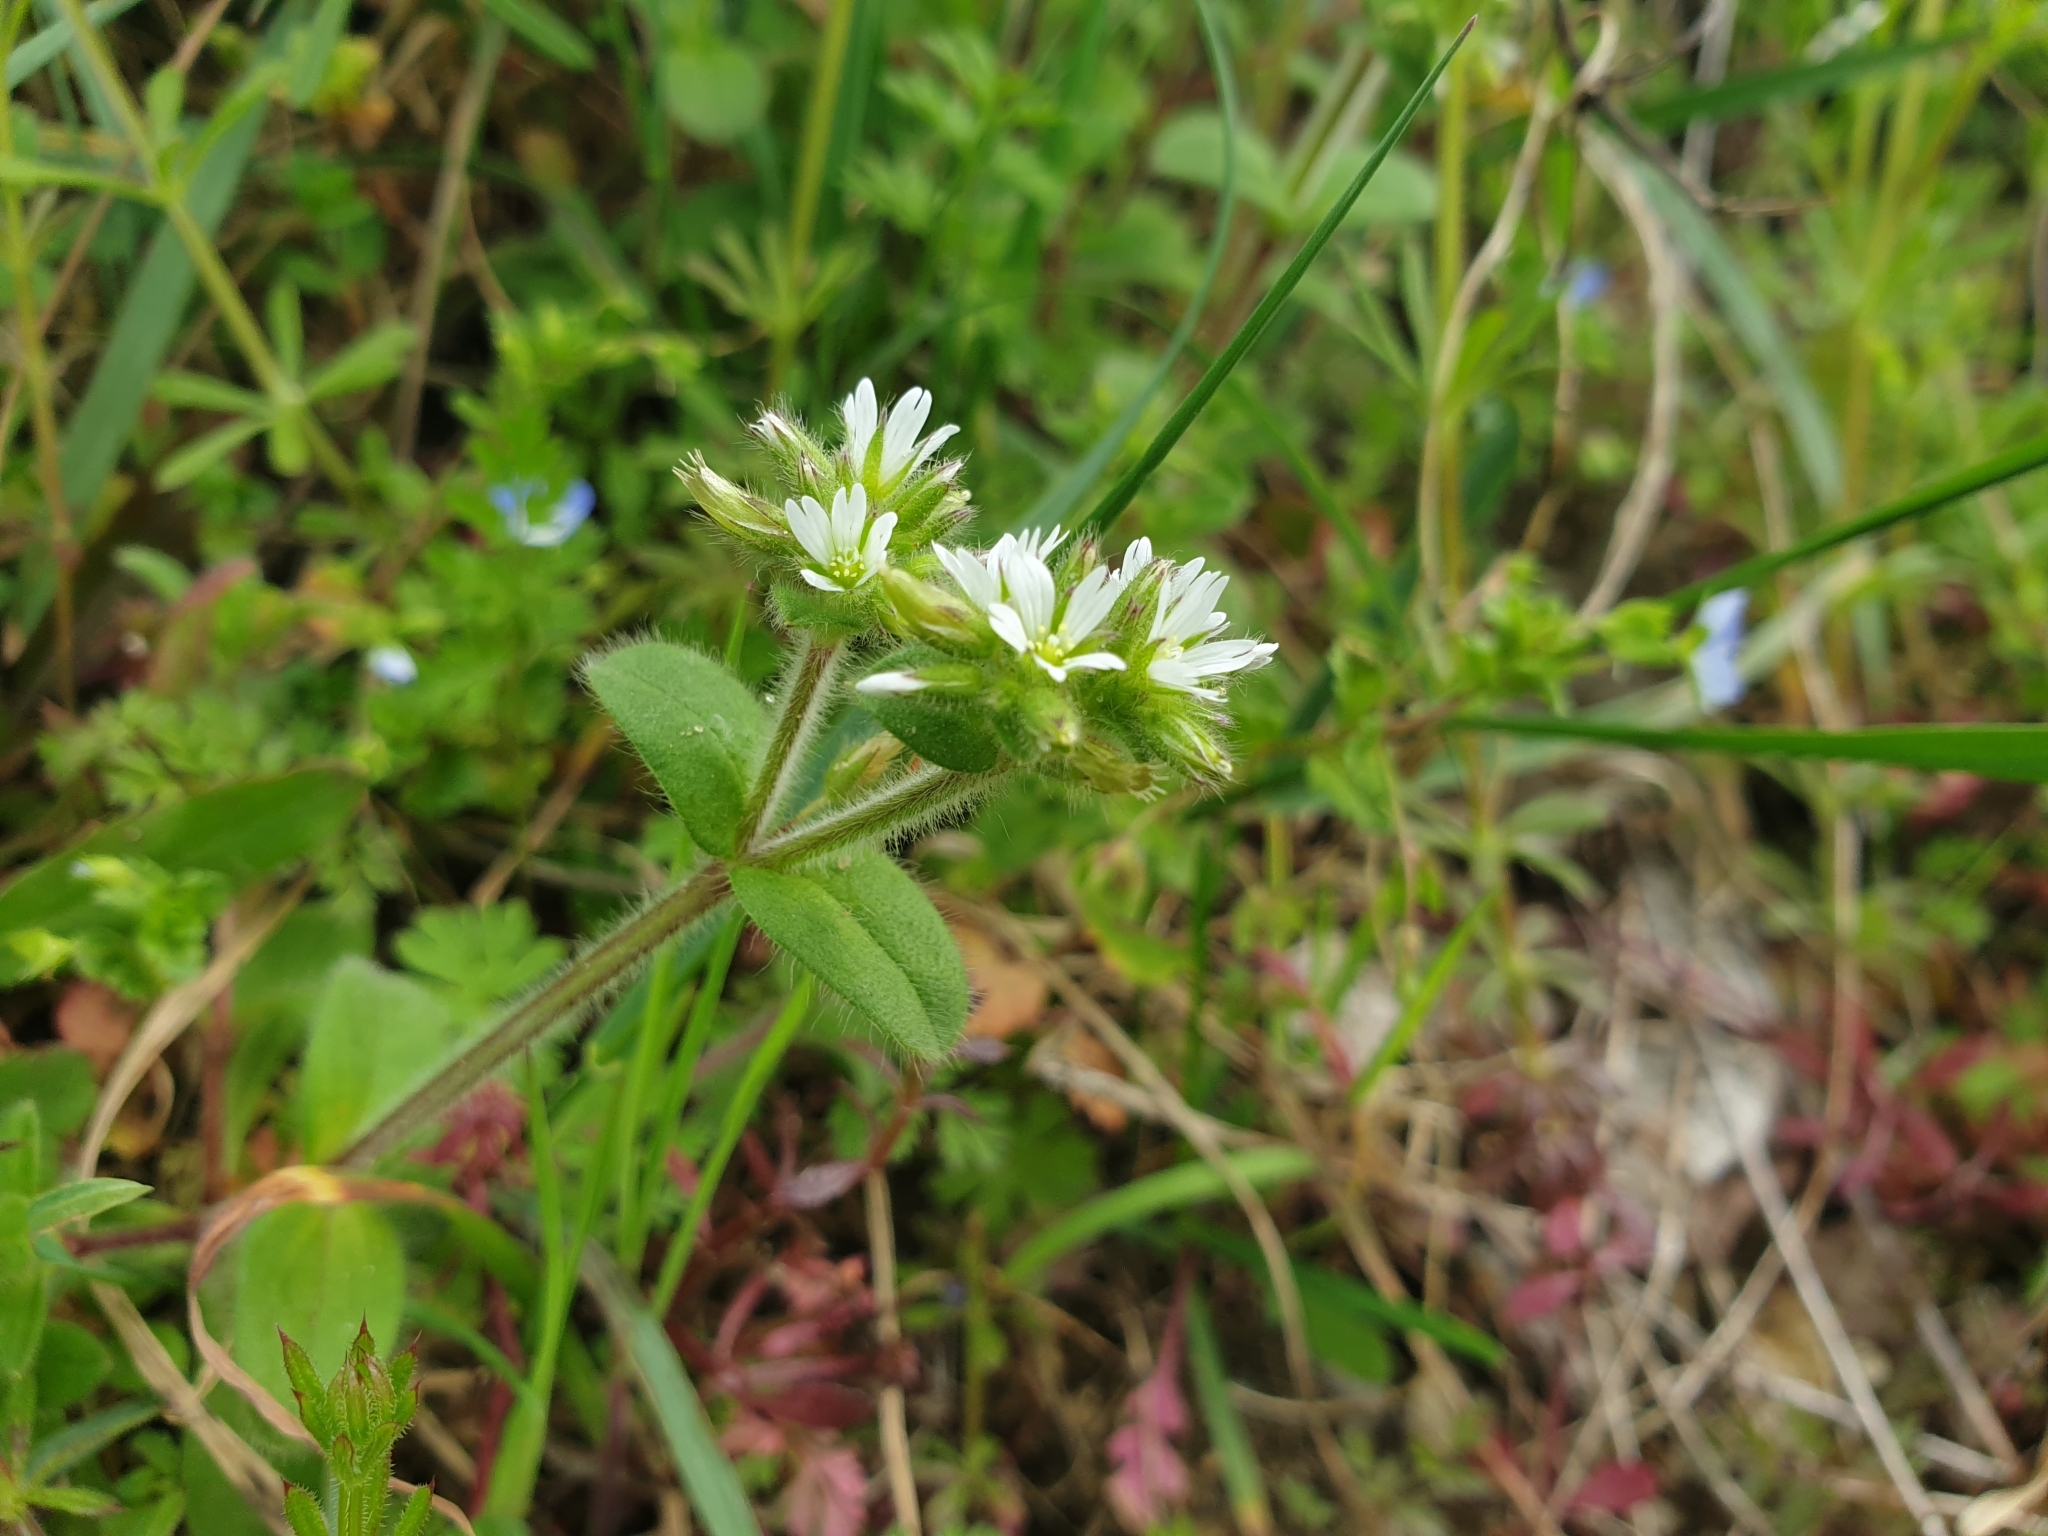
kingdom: Plantae
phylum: Tracheophyta
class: Magnoliopsida
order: Caryophyllales
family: Caryophyllaceae
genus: Cerastium
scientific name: Cerastium glomeratum
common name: Sticky chickweed
